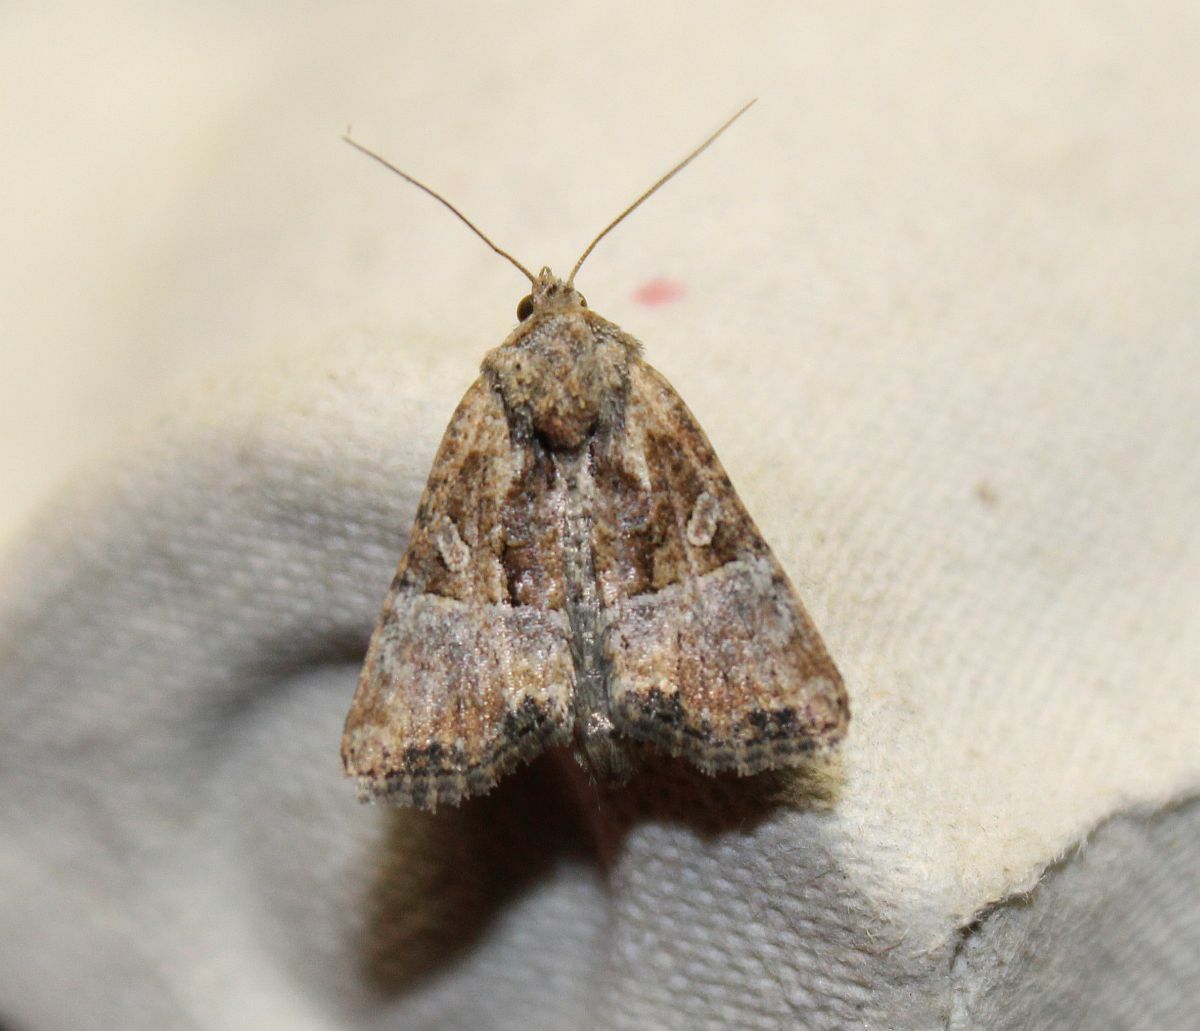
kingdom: Animalia
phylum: Arthropoda
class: Insecta
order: Lepidoptera
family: Noctuidae
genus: Mesoligia
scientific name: Mesoligia furuncula
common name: Cloaked minor
